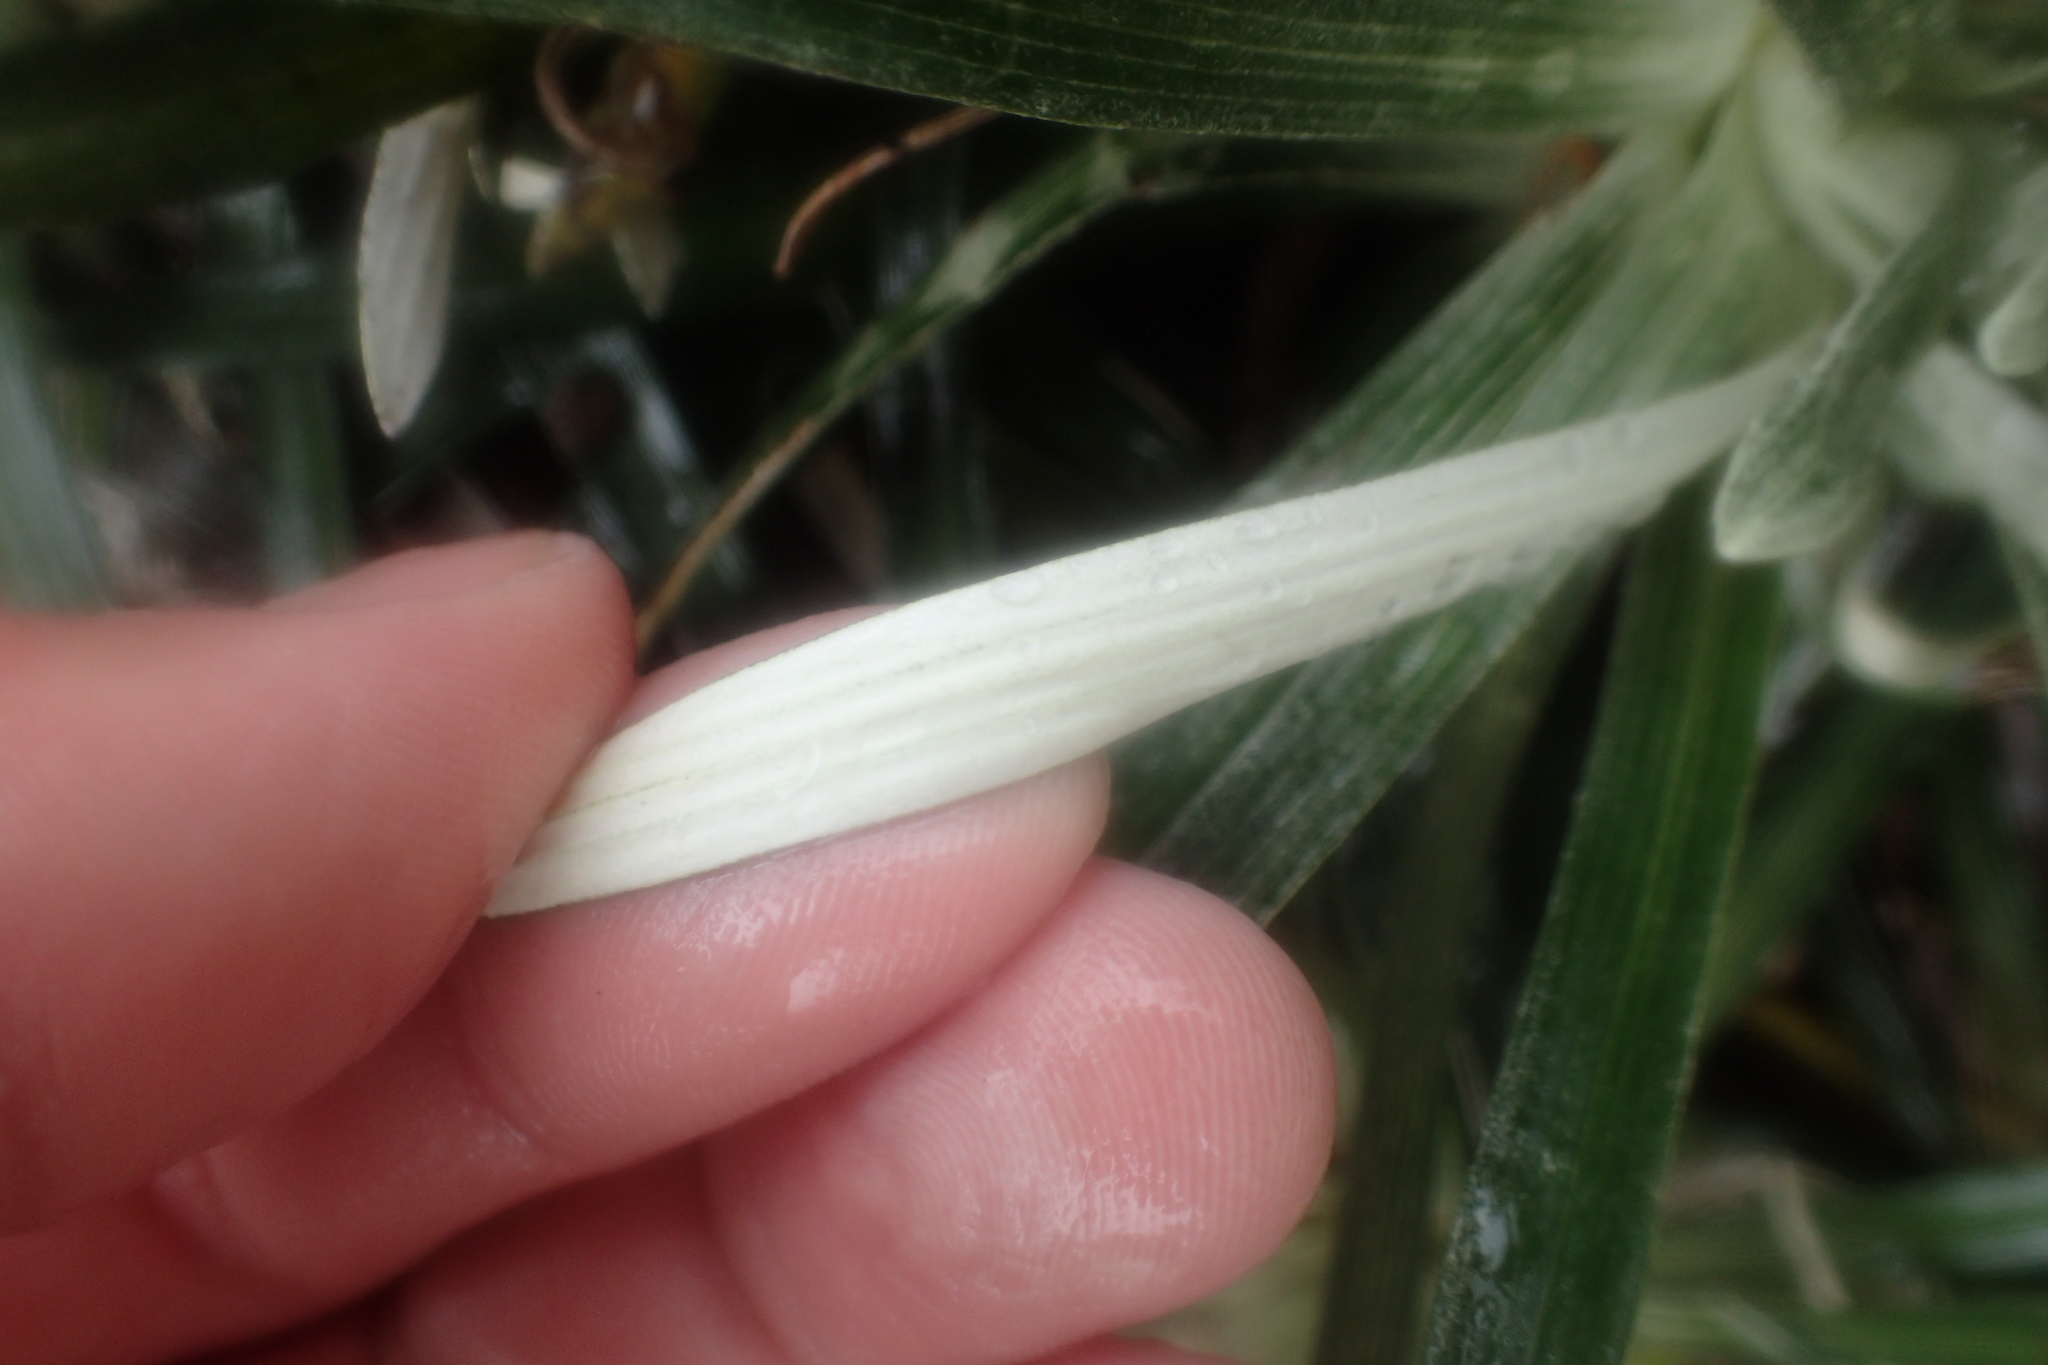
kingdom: Plantae
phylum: Tracheophyta
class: Magnoliopsida
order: Asterales
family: Asteraceae
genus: Celmisia
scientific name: Celmisia viscosa
